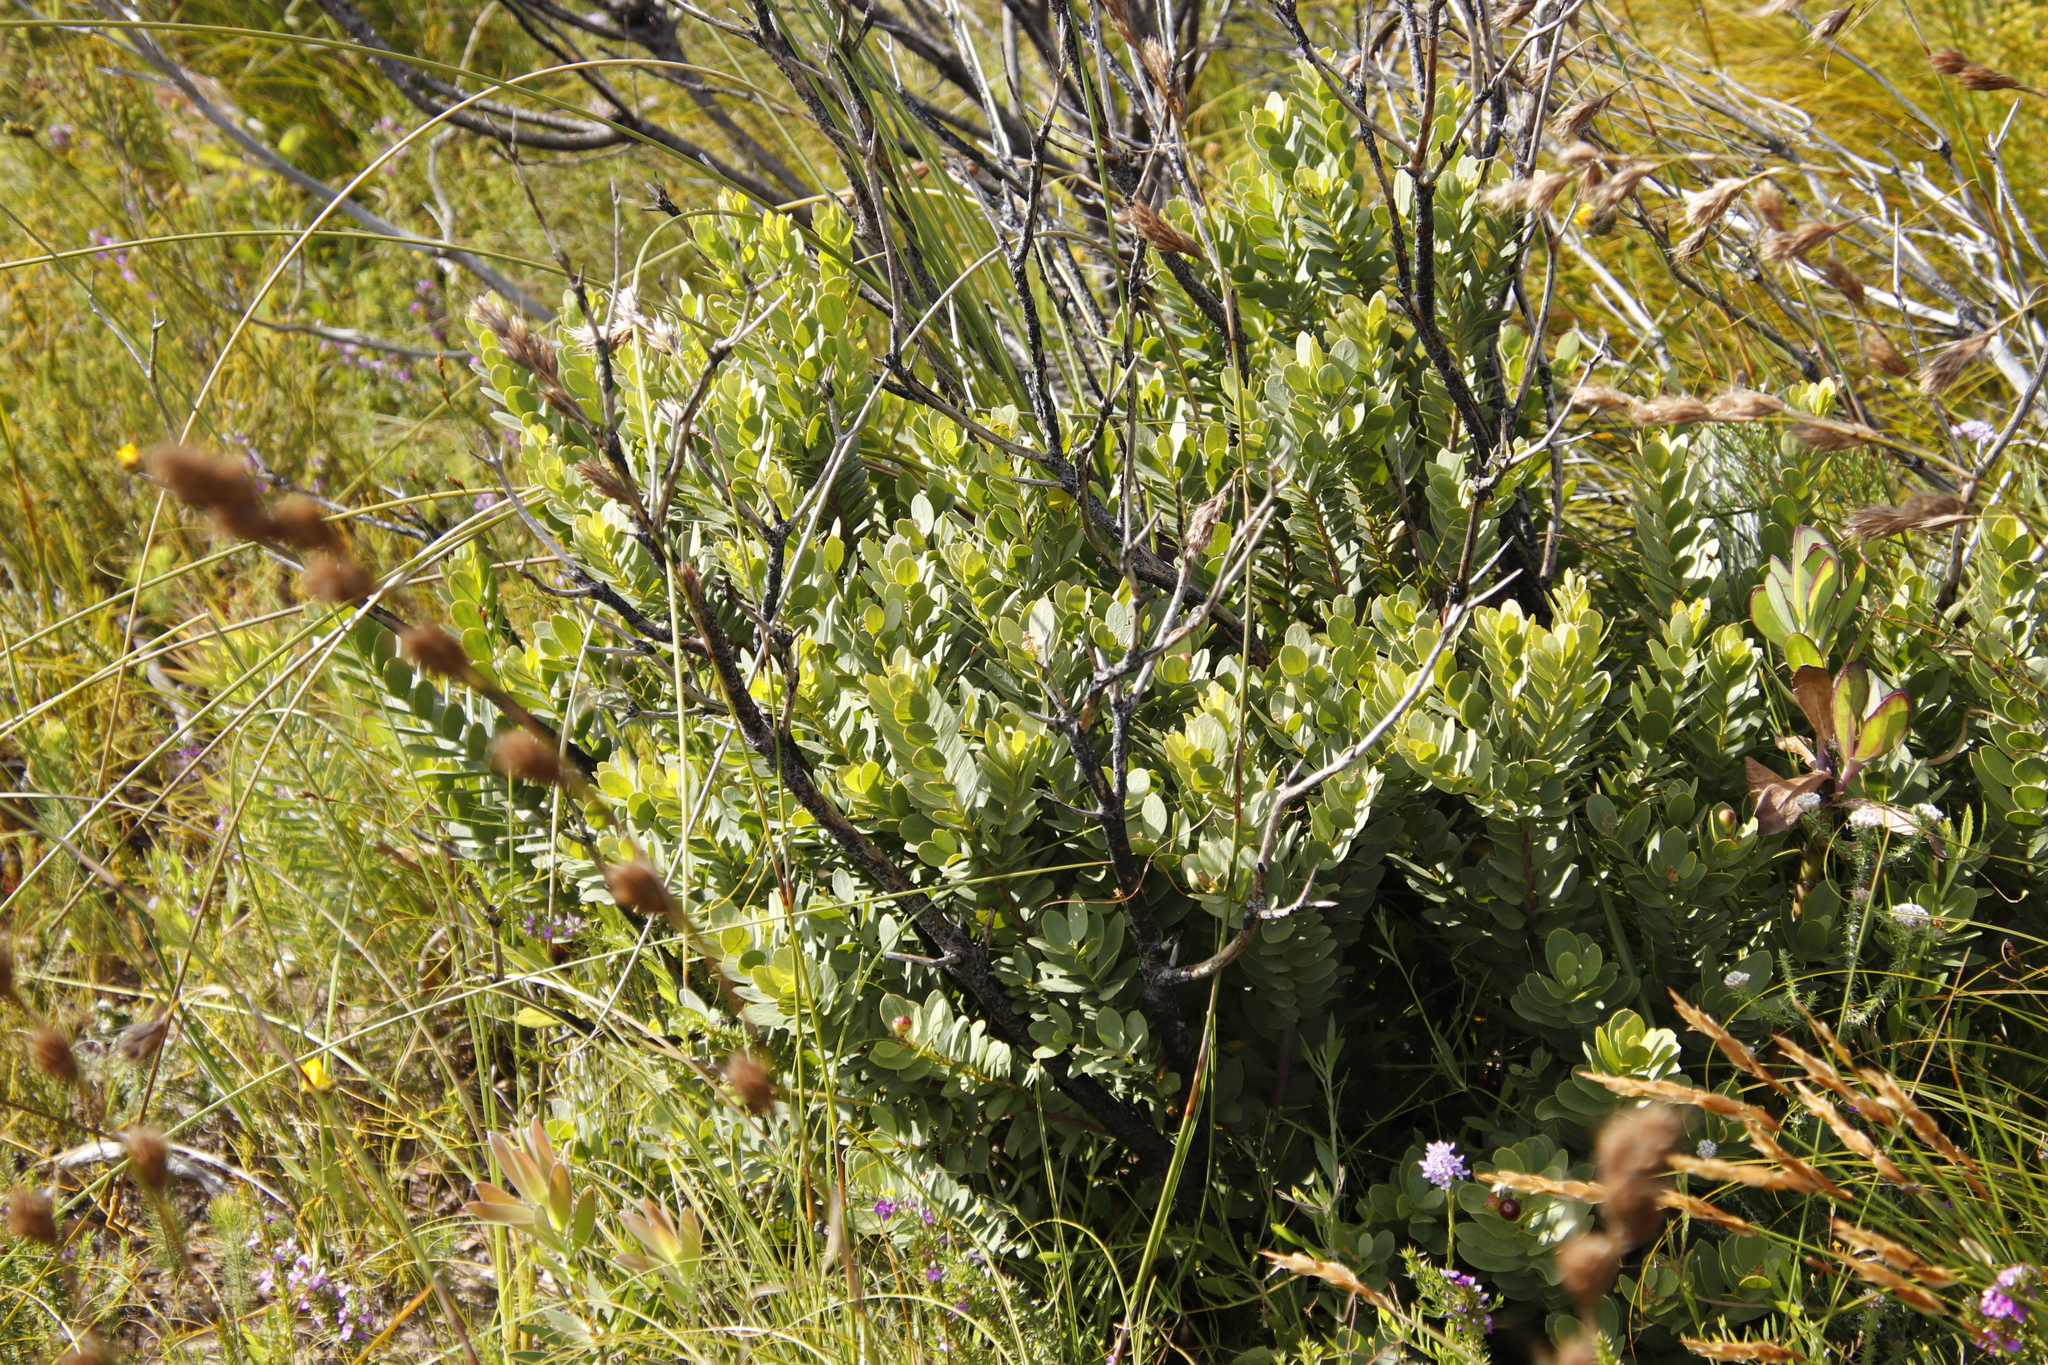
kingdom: Plantae
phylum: Tracheophyta
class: Magnoliopsida
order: Santalales
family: Santalaceae
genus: Osyris
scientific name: Osyris compressa
